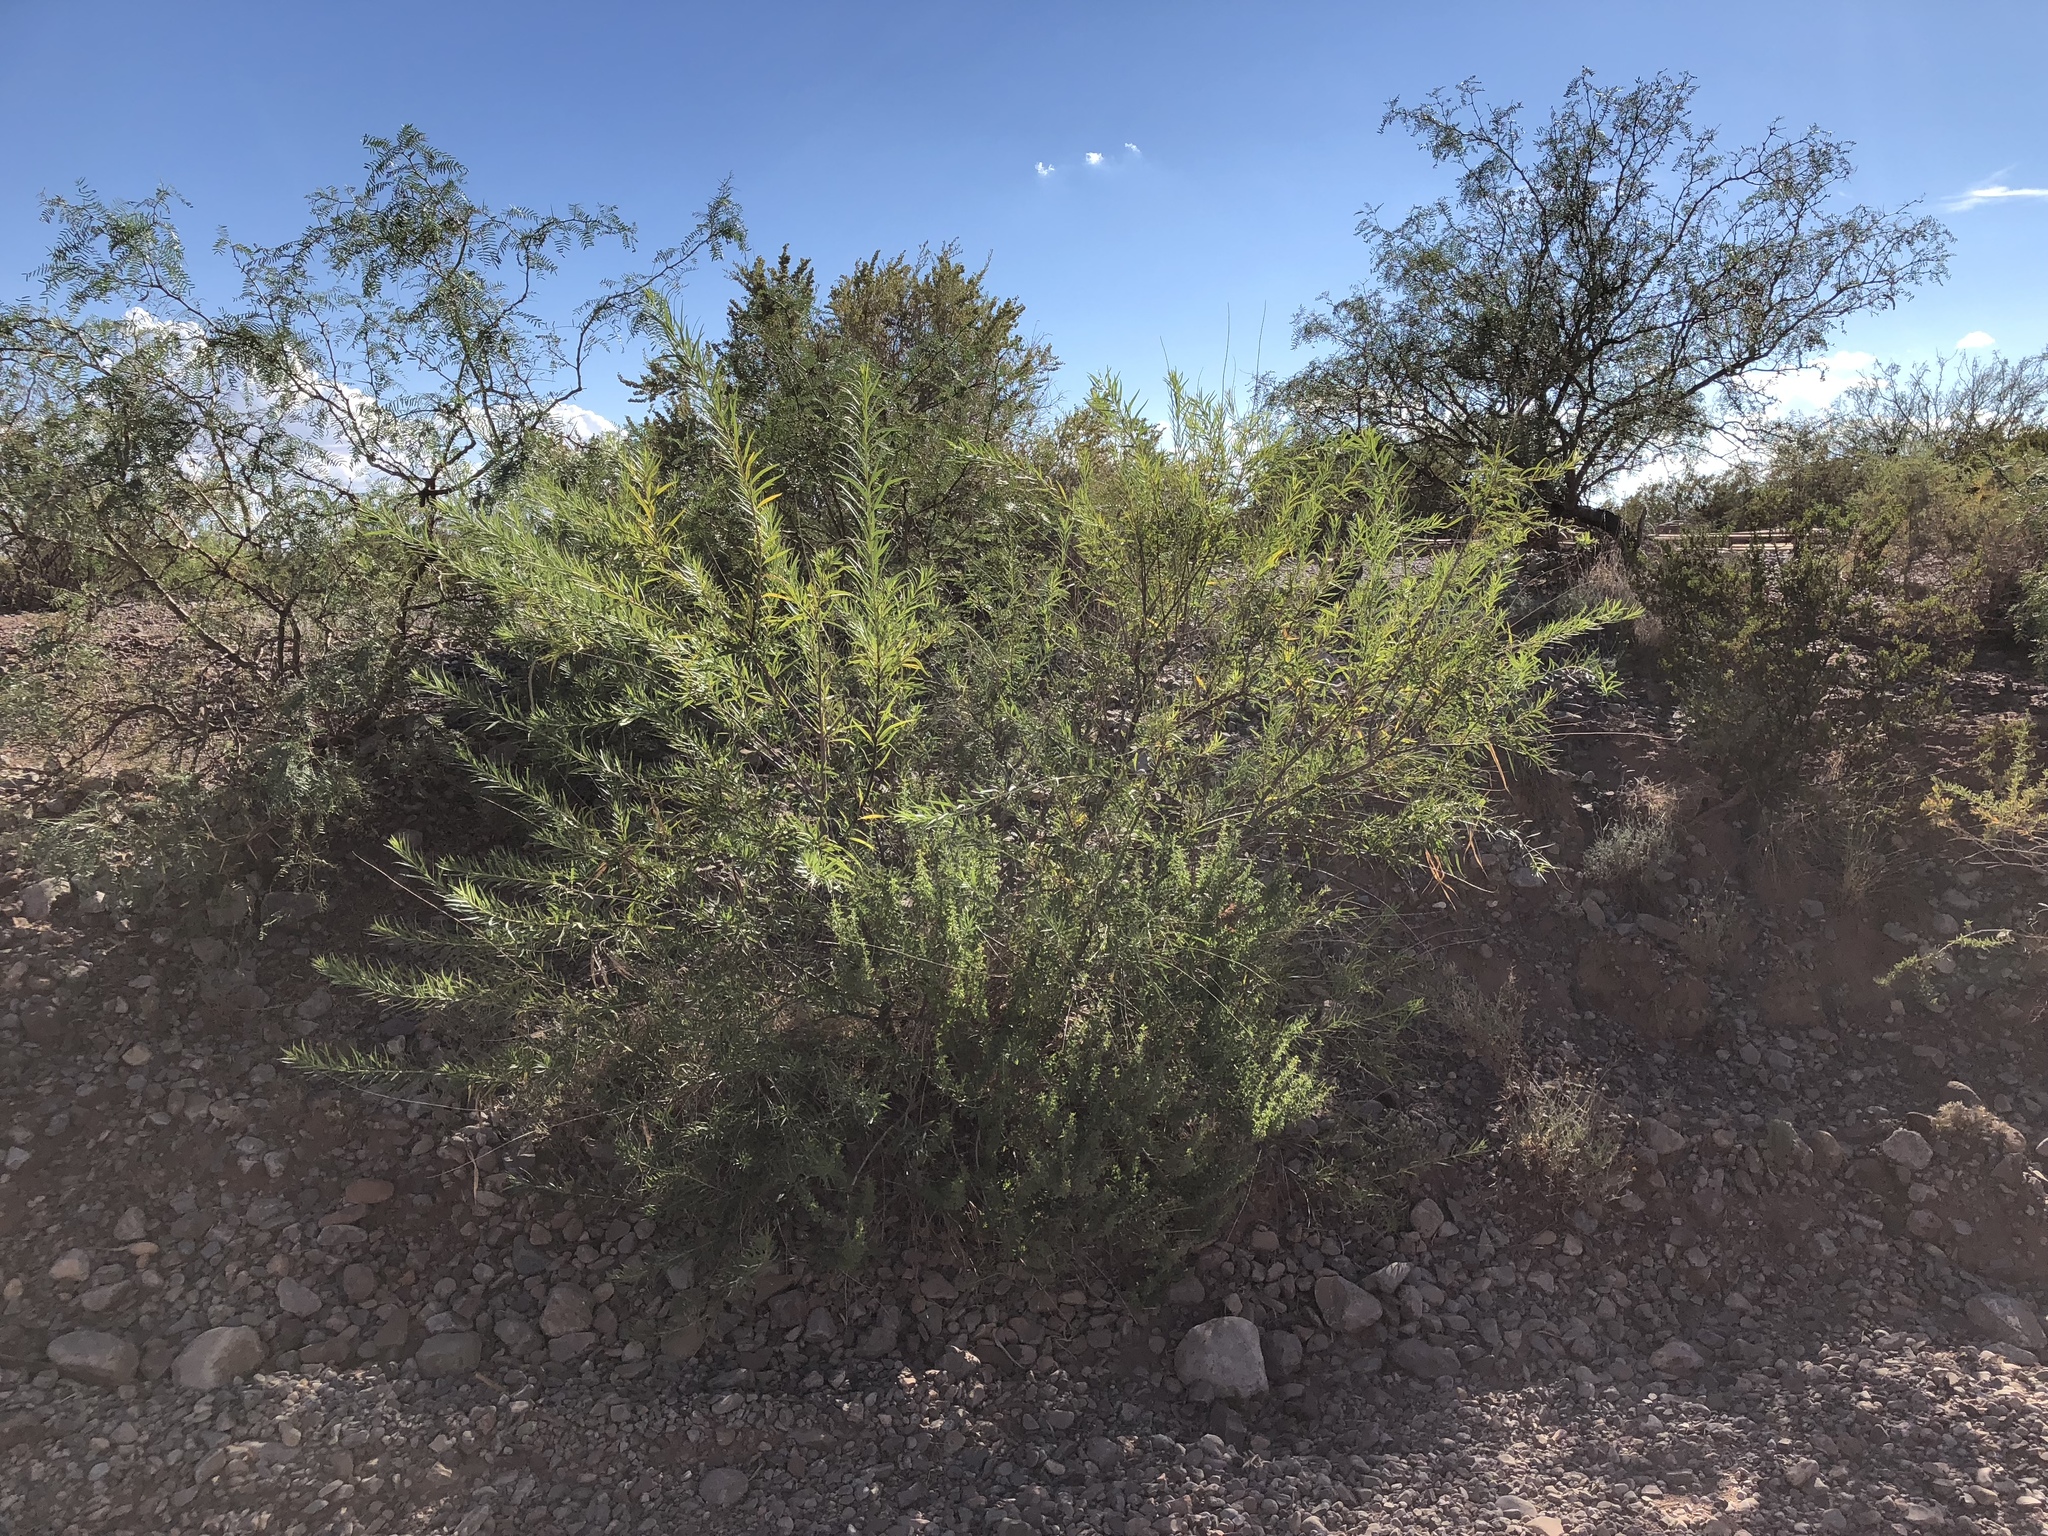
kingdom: Plantae
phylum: Tracheophyta
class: Magnoliopsida
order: Lamiales
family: Bignoniaceae
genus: Chilopsis
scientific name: Chilopsis linearis
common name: Desert-willow
